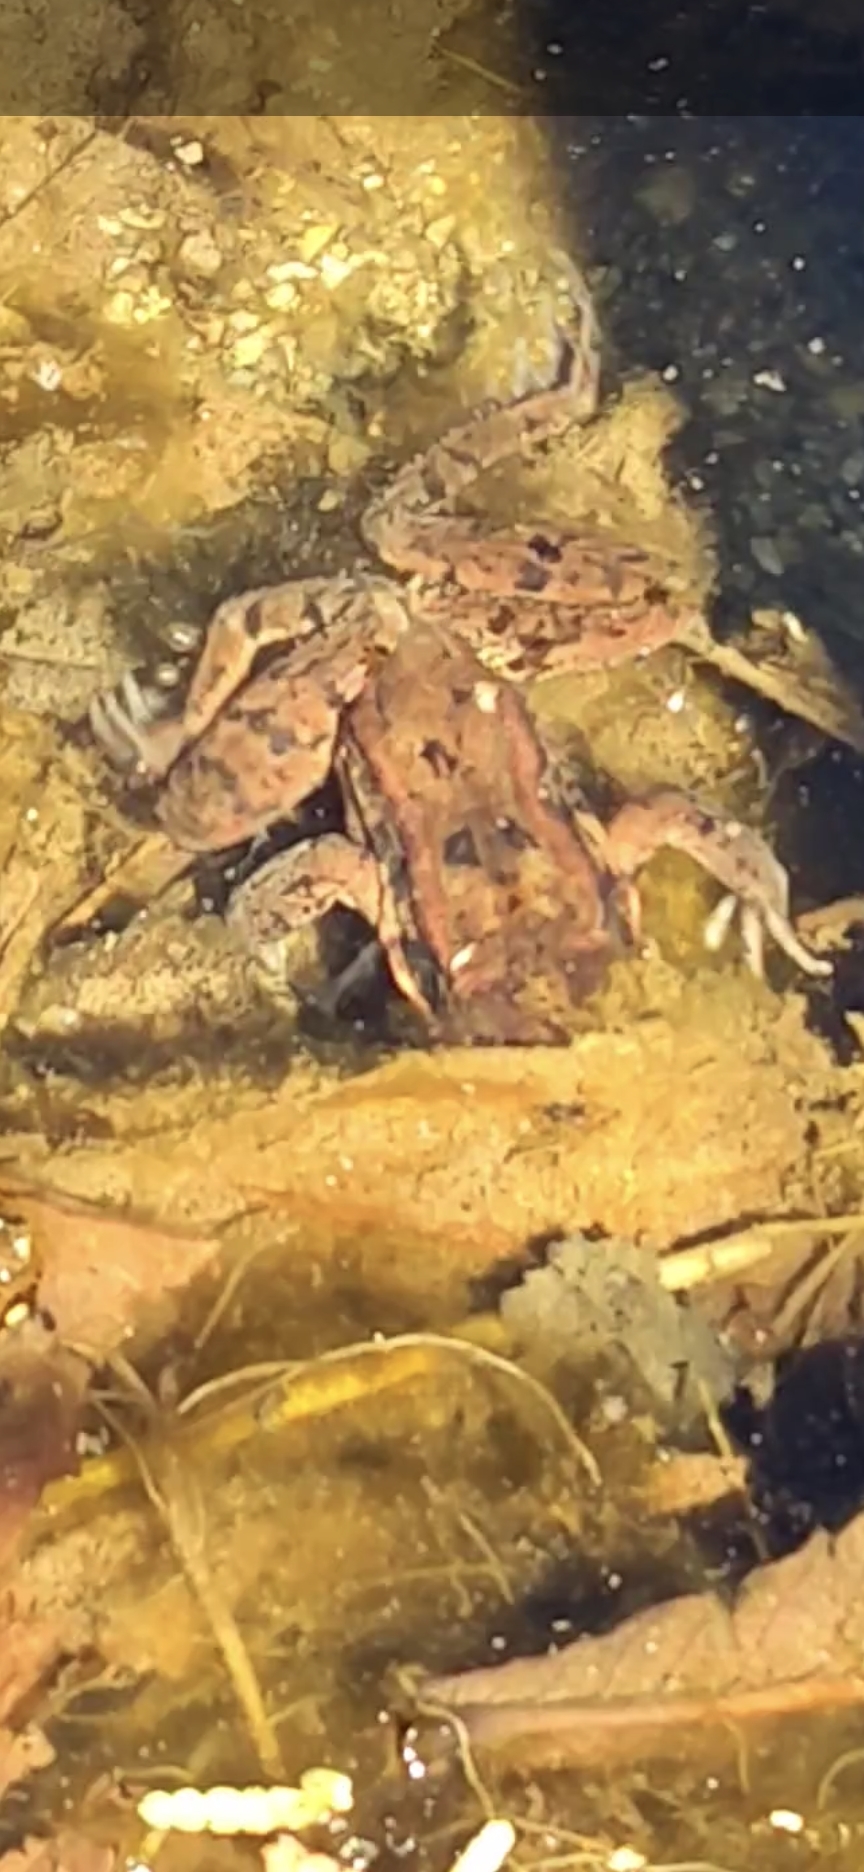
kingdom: Animalia
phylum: Chordata
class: Amphibia
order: Anura
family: Ranidae
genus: Rana
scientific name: Rana aurora
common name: Red-legged frog
